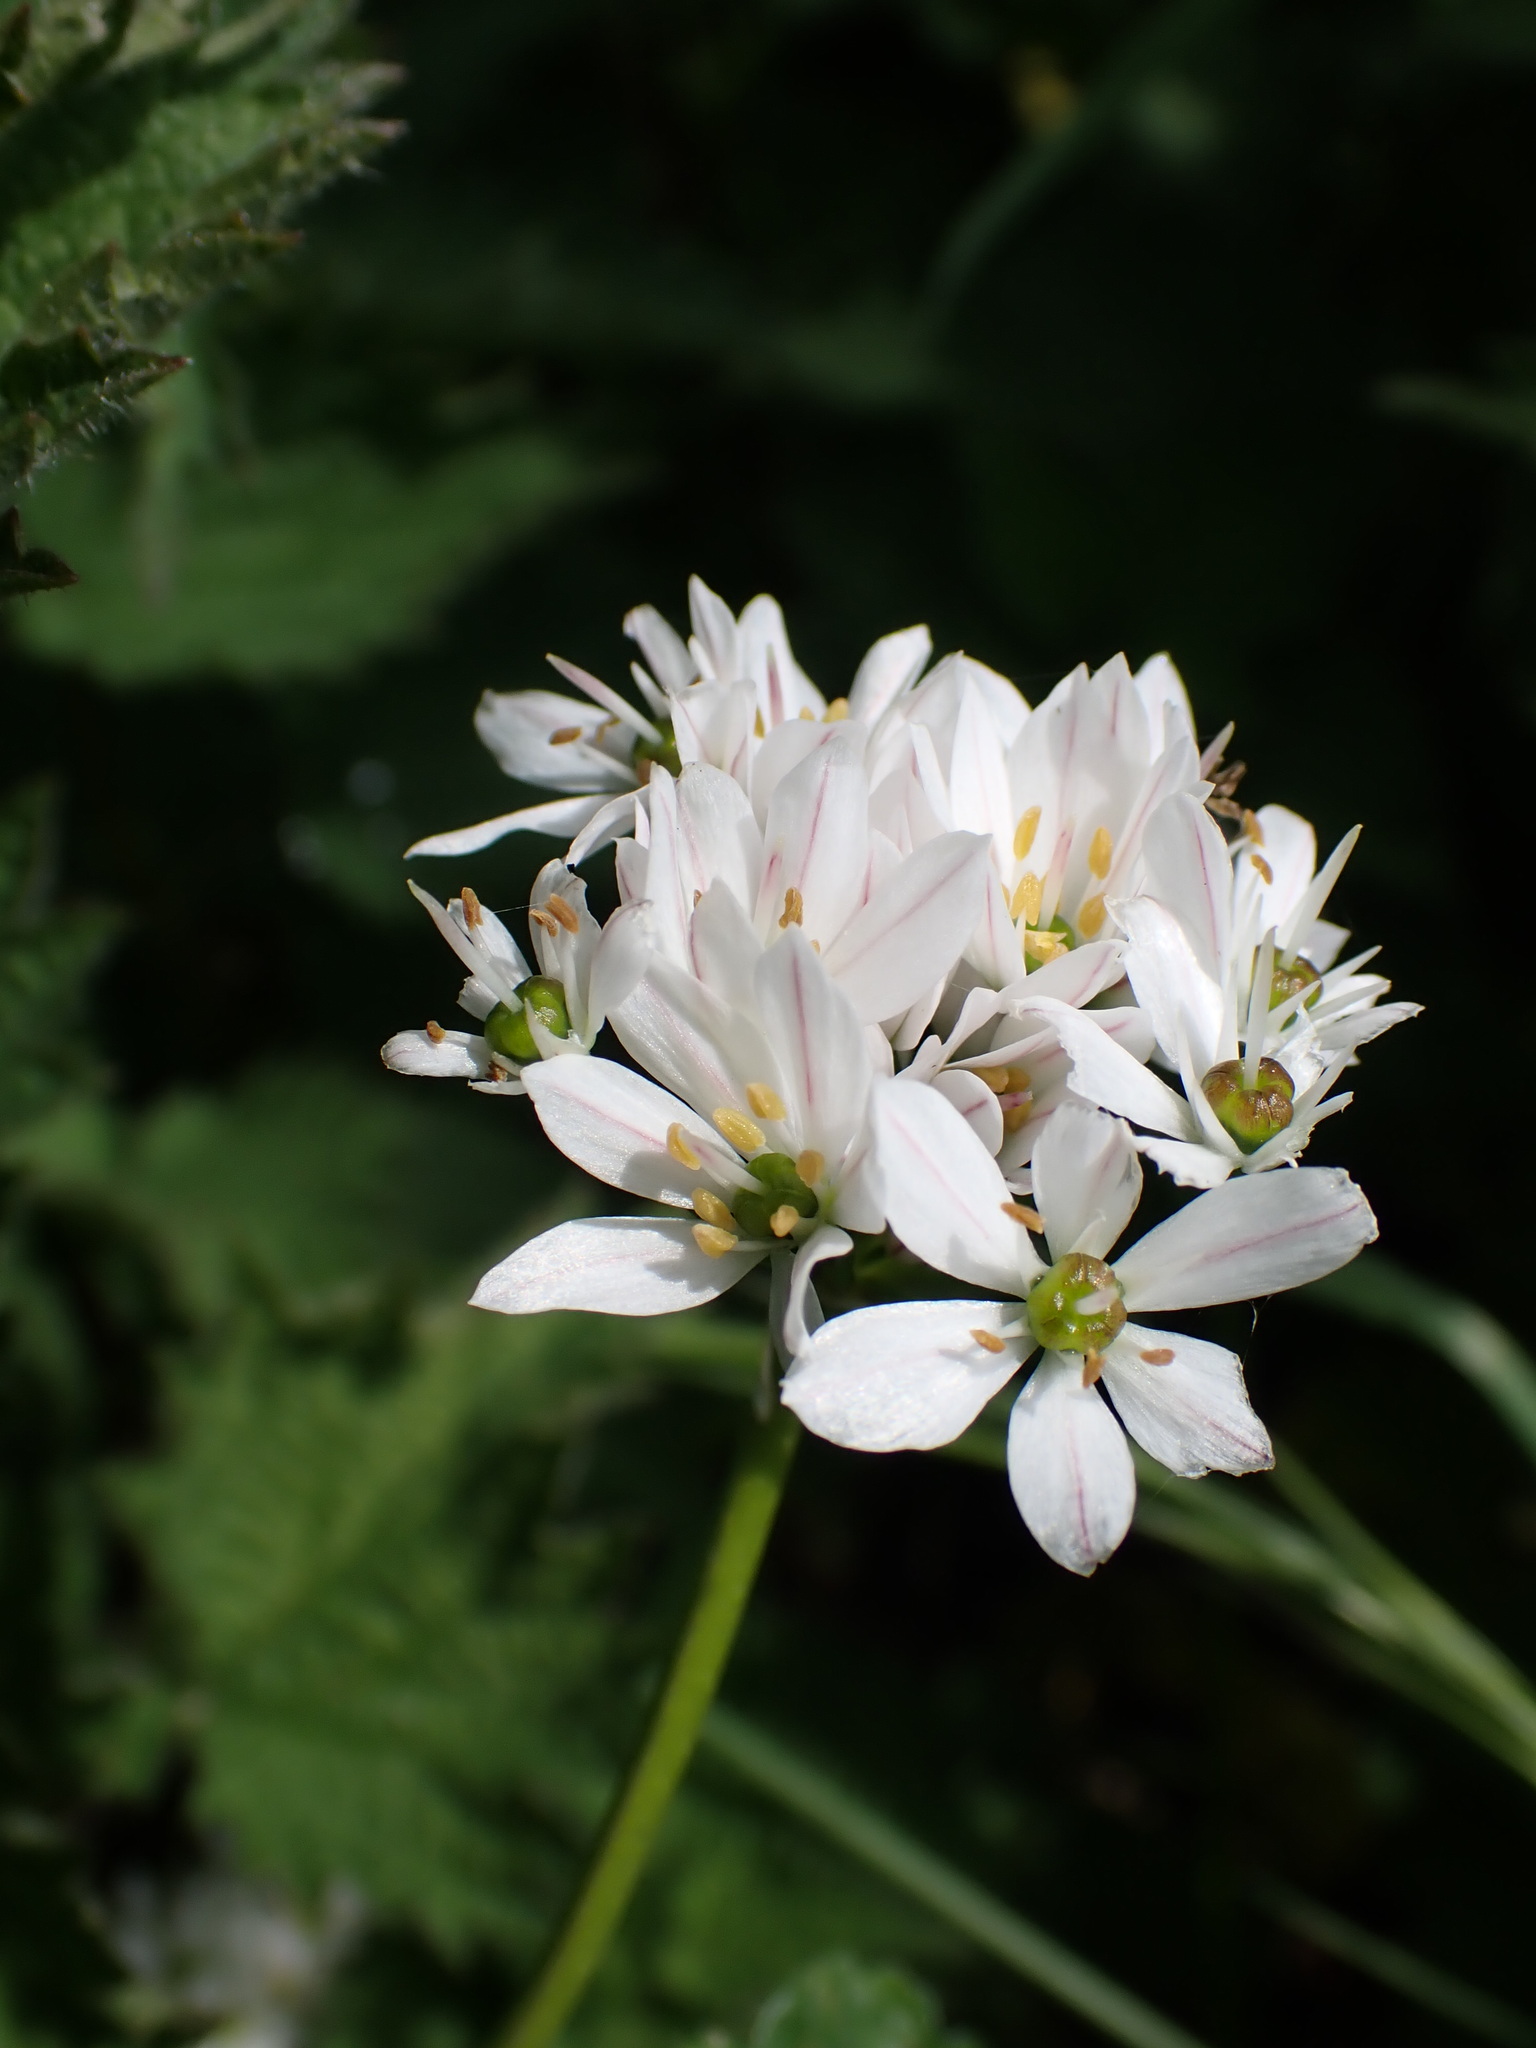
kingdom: Plantae
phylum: Tracheophyta
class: Liliopsida
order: Asparagales
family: Amaryllidaceae
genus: Allium
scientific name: Allium trifoliatum
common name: Pink garlic
